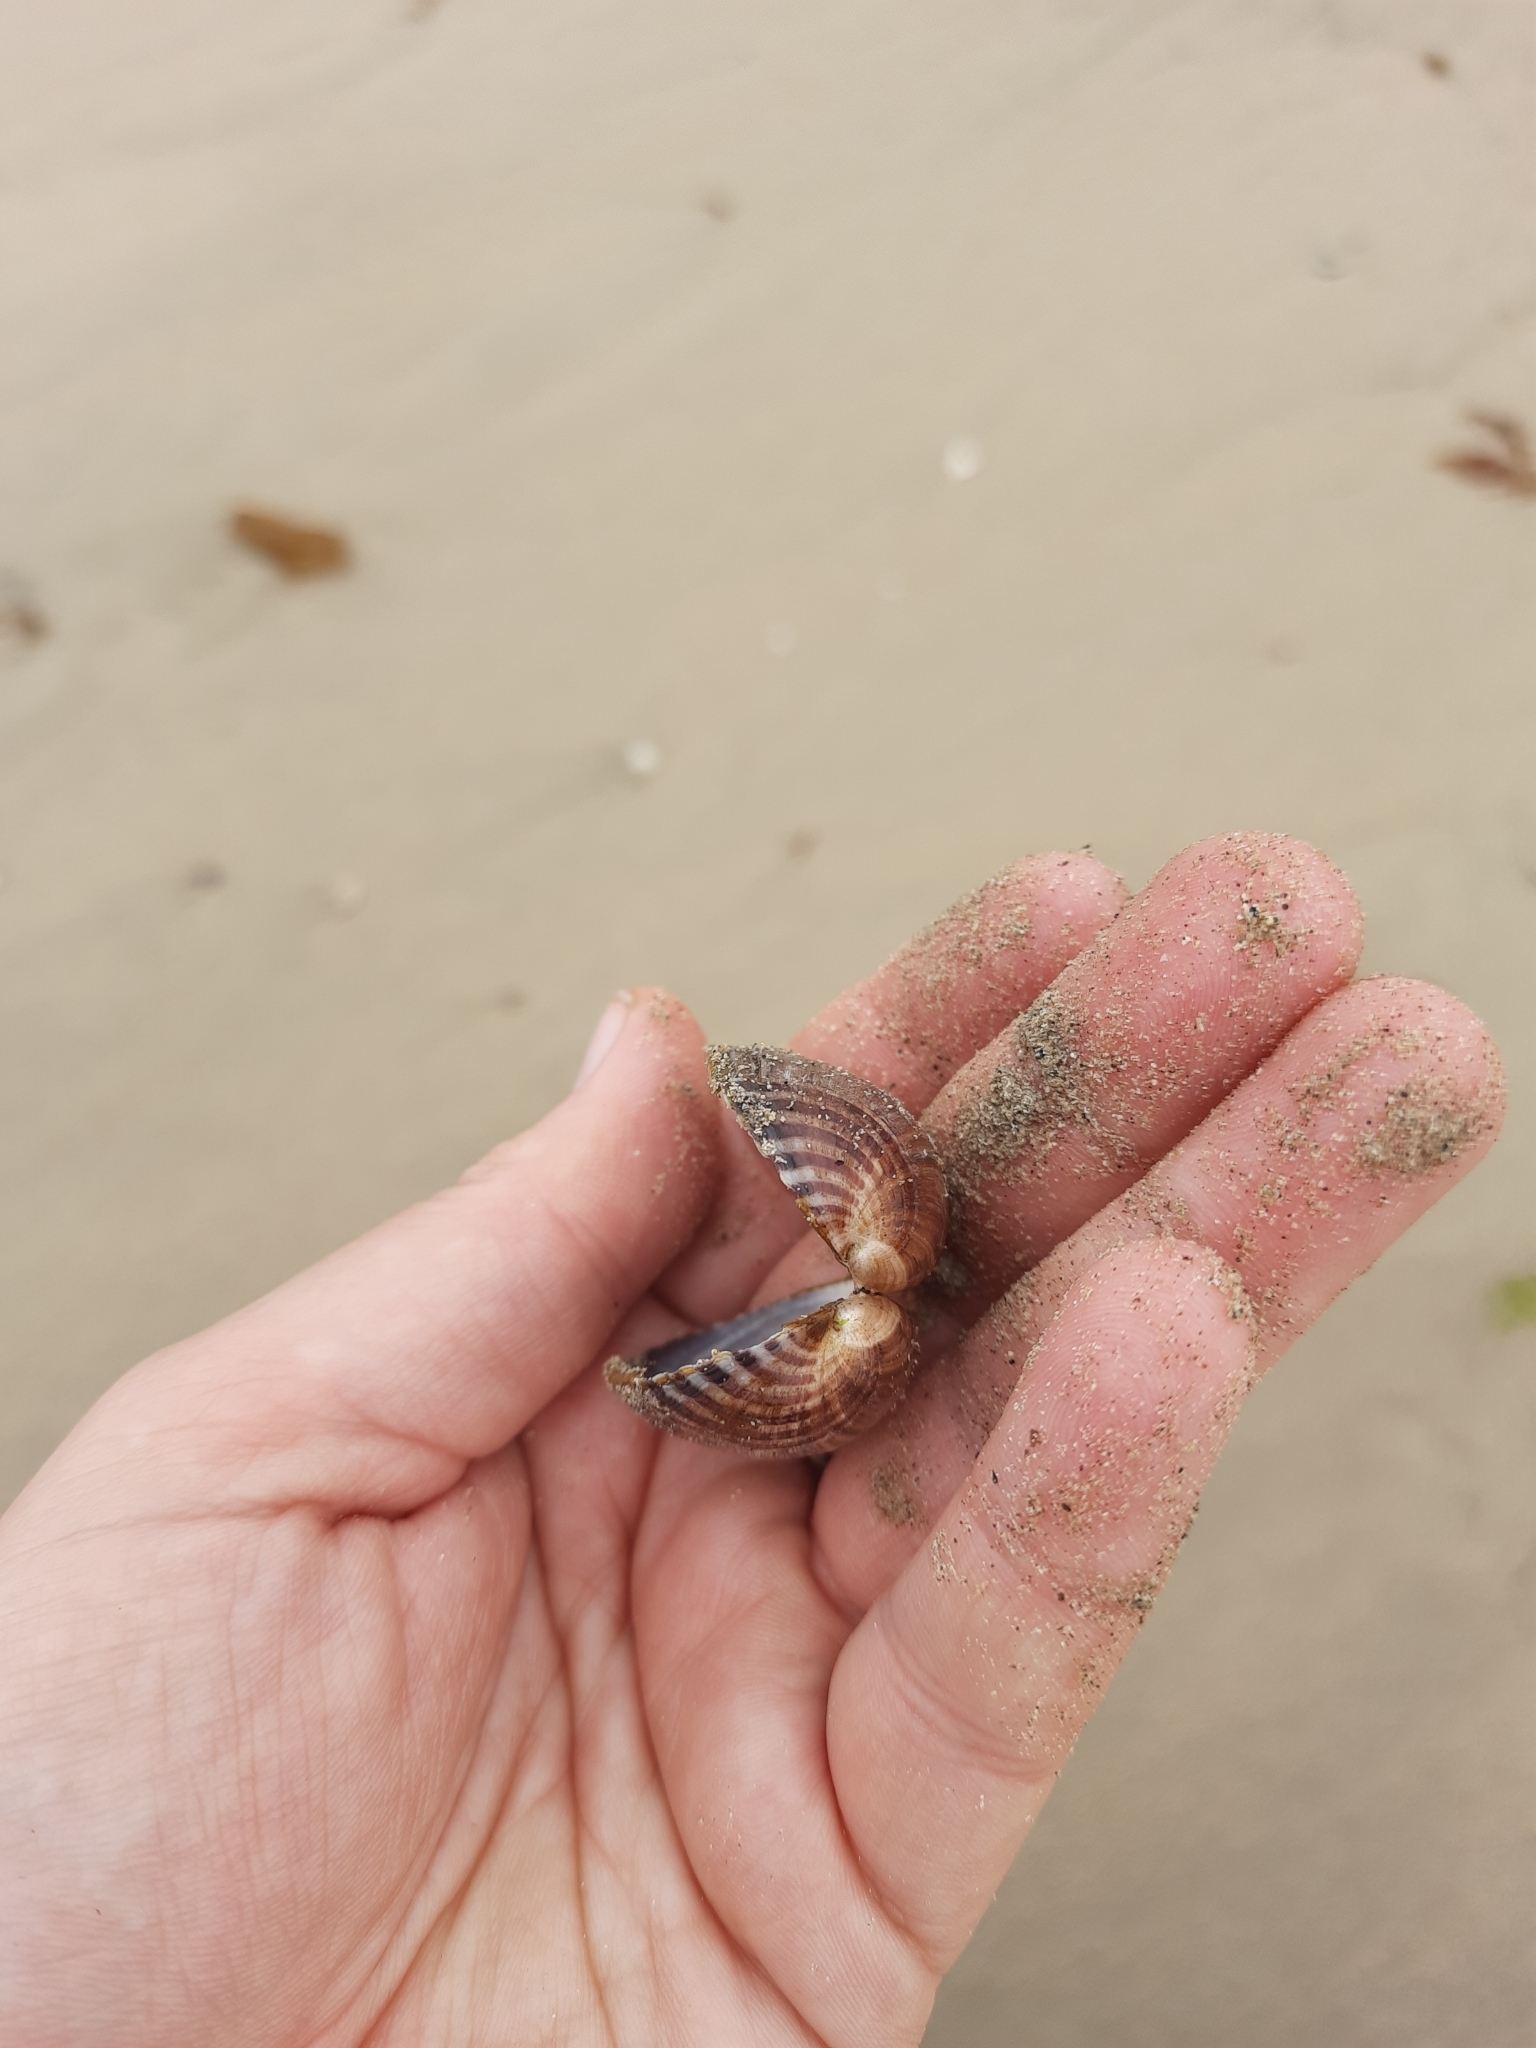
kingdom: Animalia
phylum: Mollusca
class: Bivalvia
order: Mytilida
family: Mytilidae
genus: Musculus
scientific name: Musculus impactus
